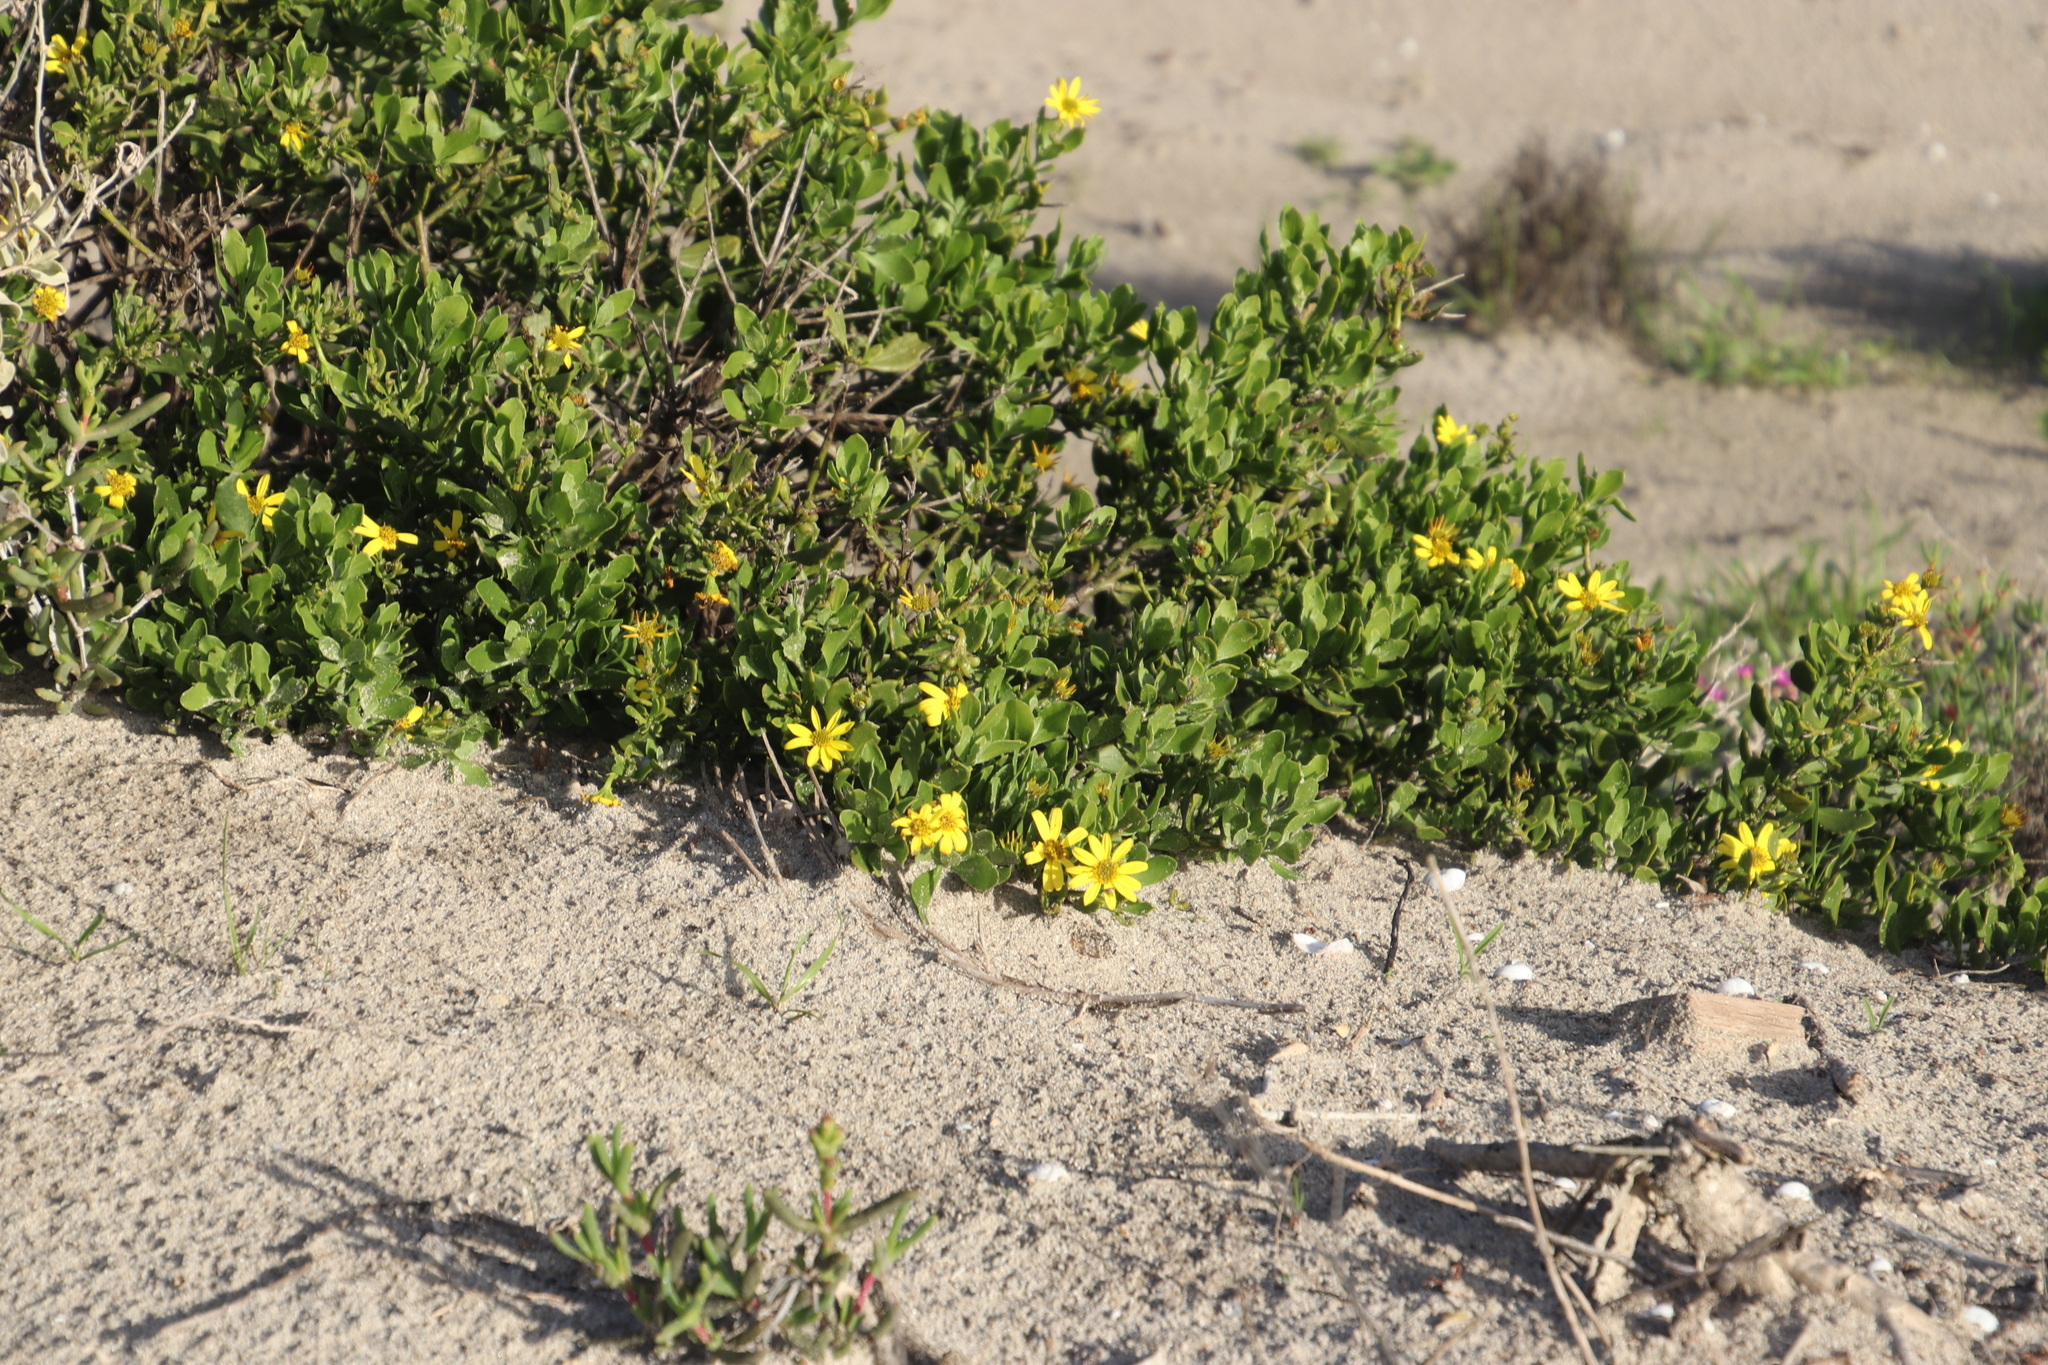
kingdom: Plantae
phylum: Tracheophyta
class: Magnoliopsida
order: Asterales
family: Asteraceae
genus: Osteospermum
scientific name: Osteospermum moniliferum
